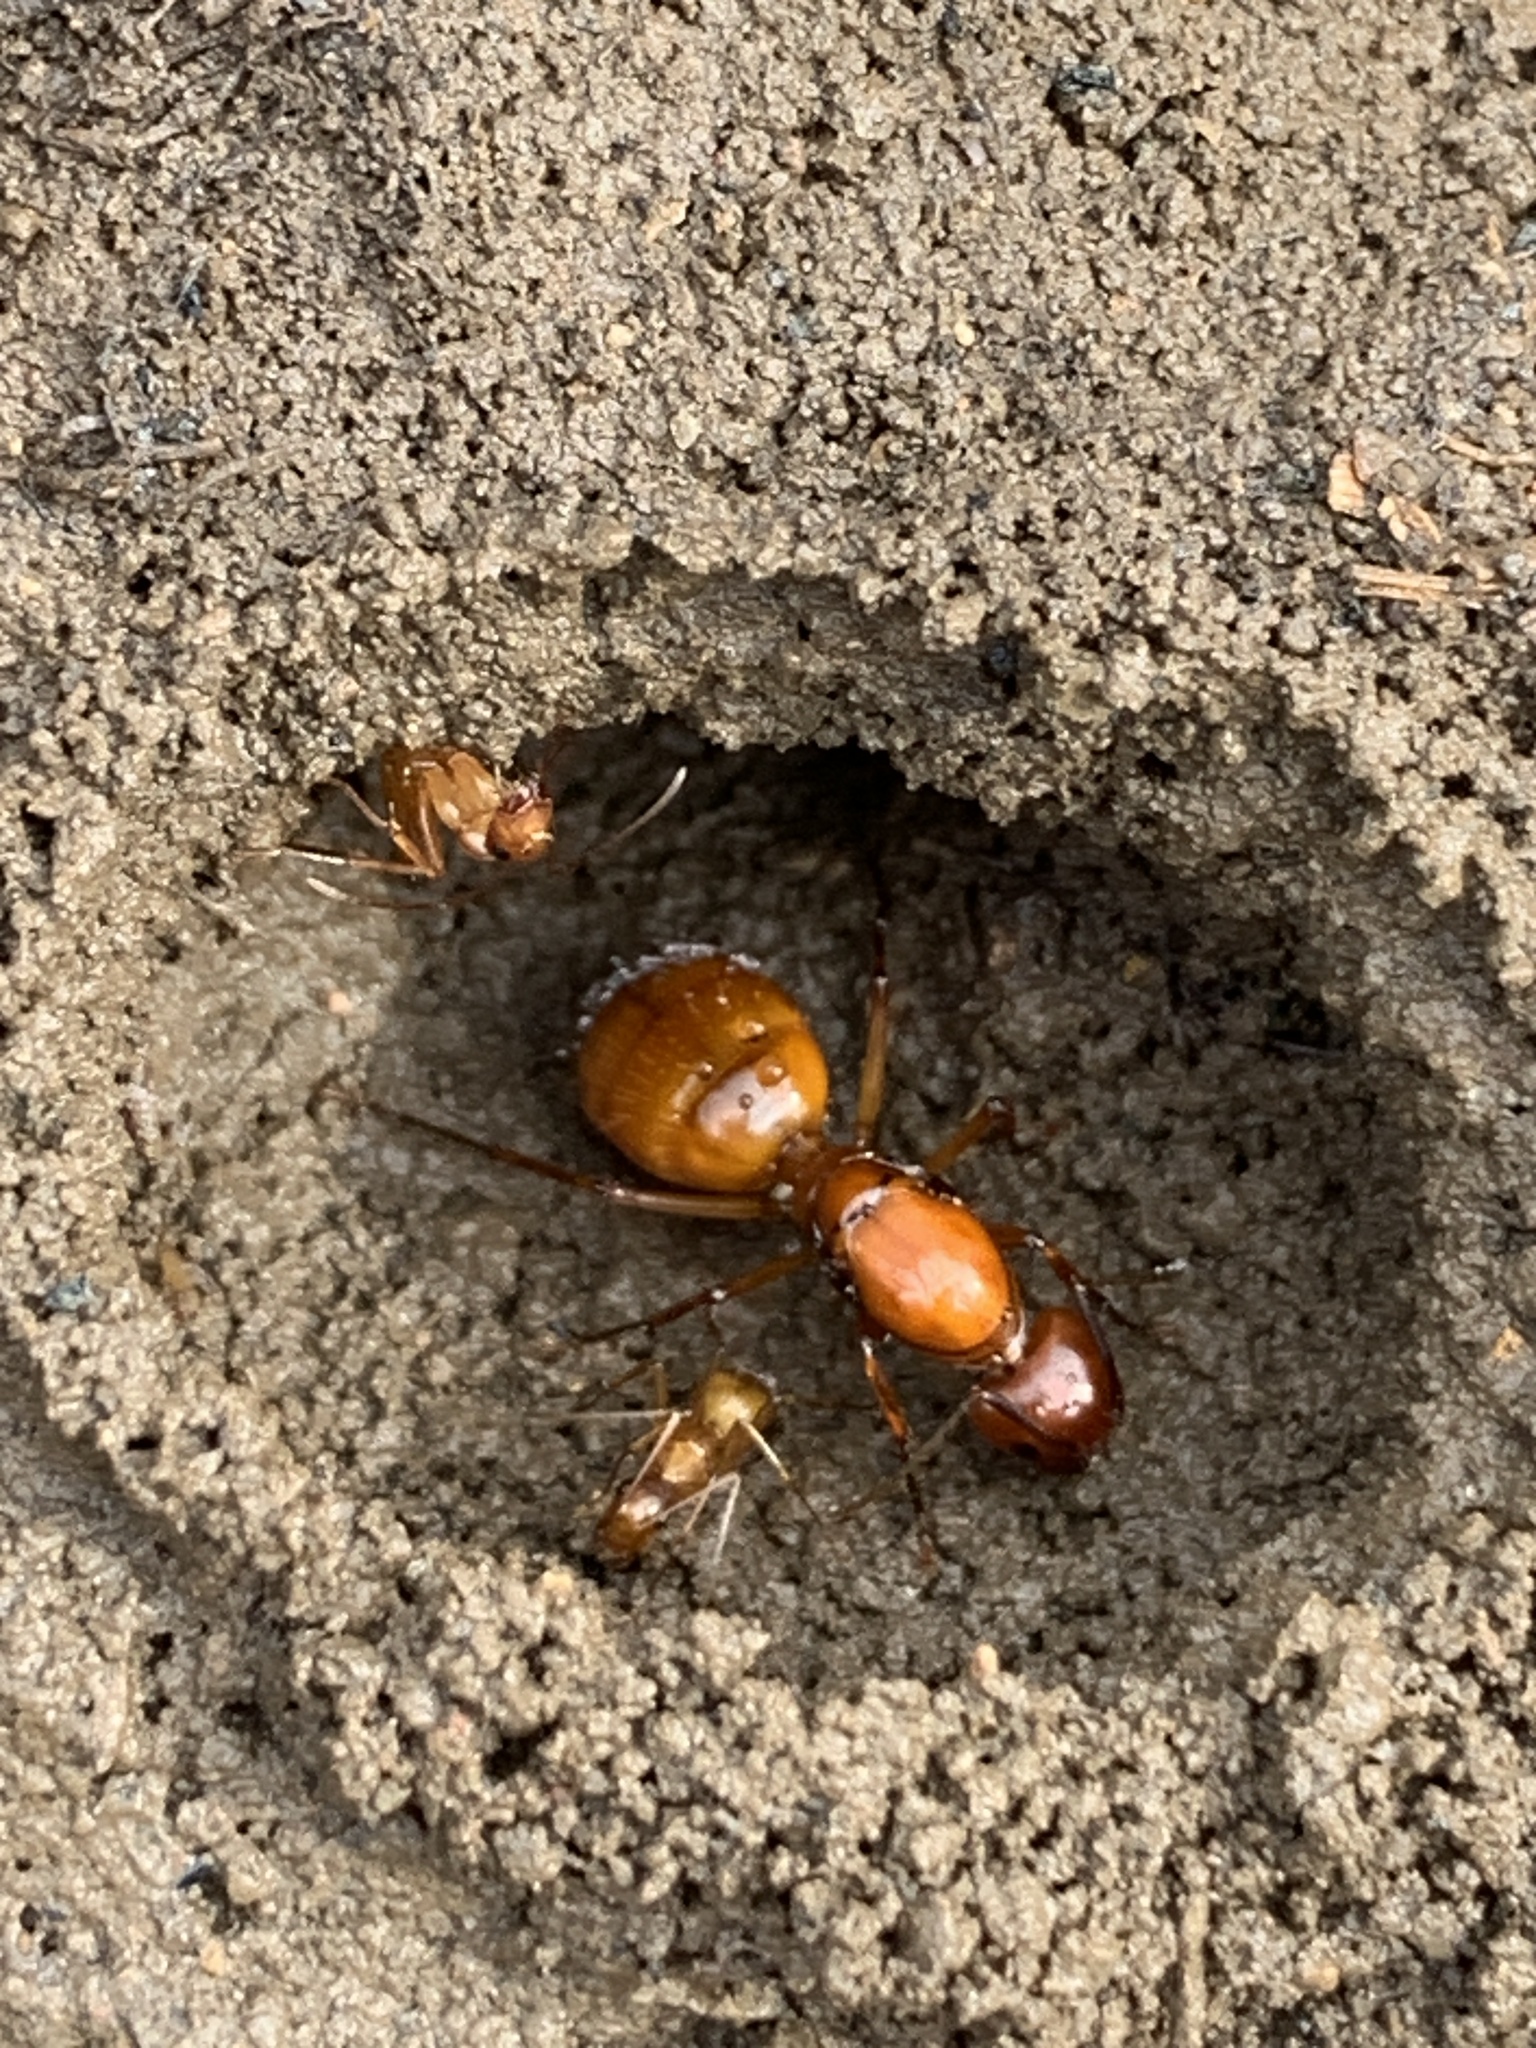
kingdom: Animalia
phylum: Arthropoda
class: Insecta
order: Hymenoptera
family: Formicidae
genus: Camponotus
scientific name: Camponotus castaneus
